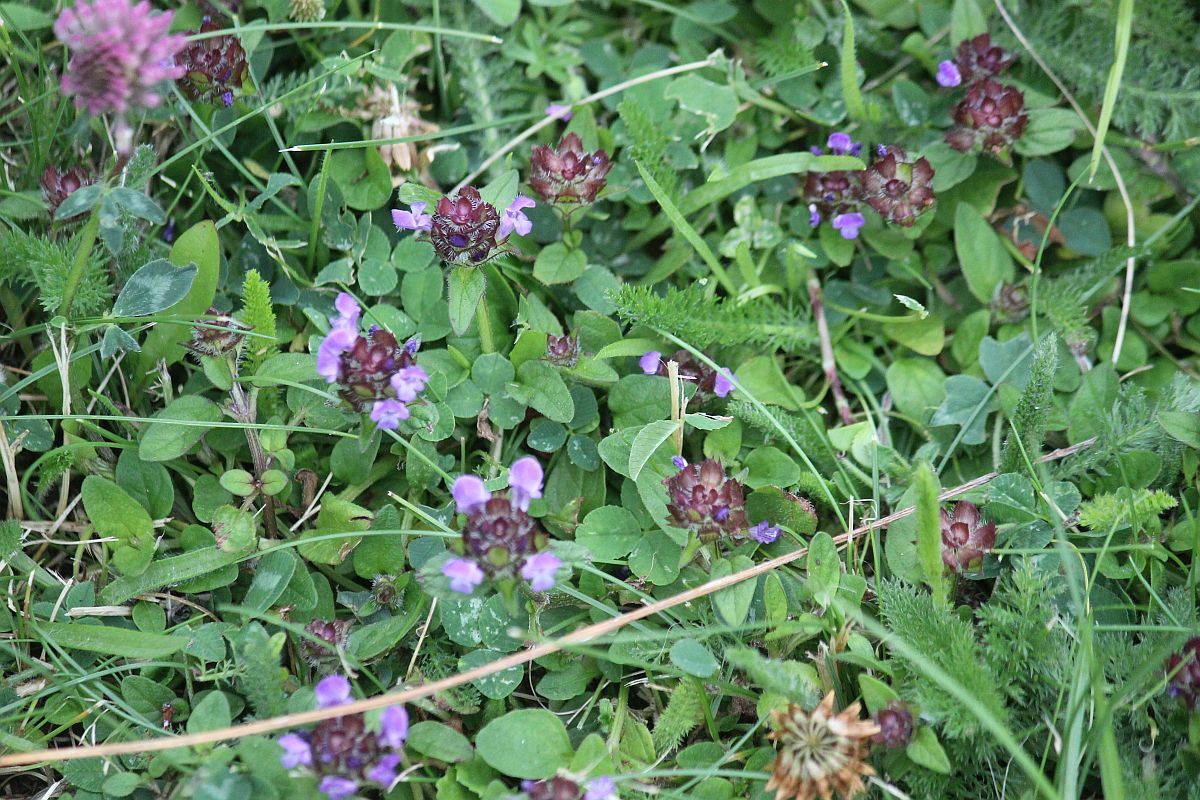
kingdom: Plantae
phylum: Tracheophyta
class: Magnoliopsida
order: Lamiales
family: Lamiaceae
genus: Prunella
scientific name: Prunella vulgaris
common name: Heal-all
